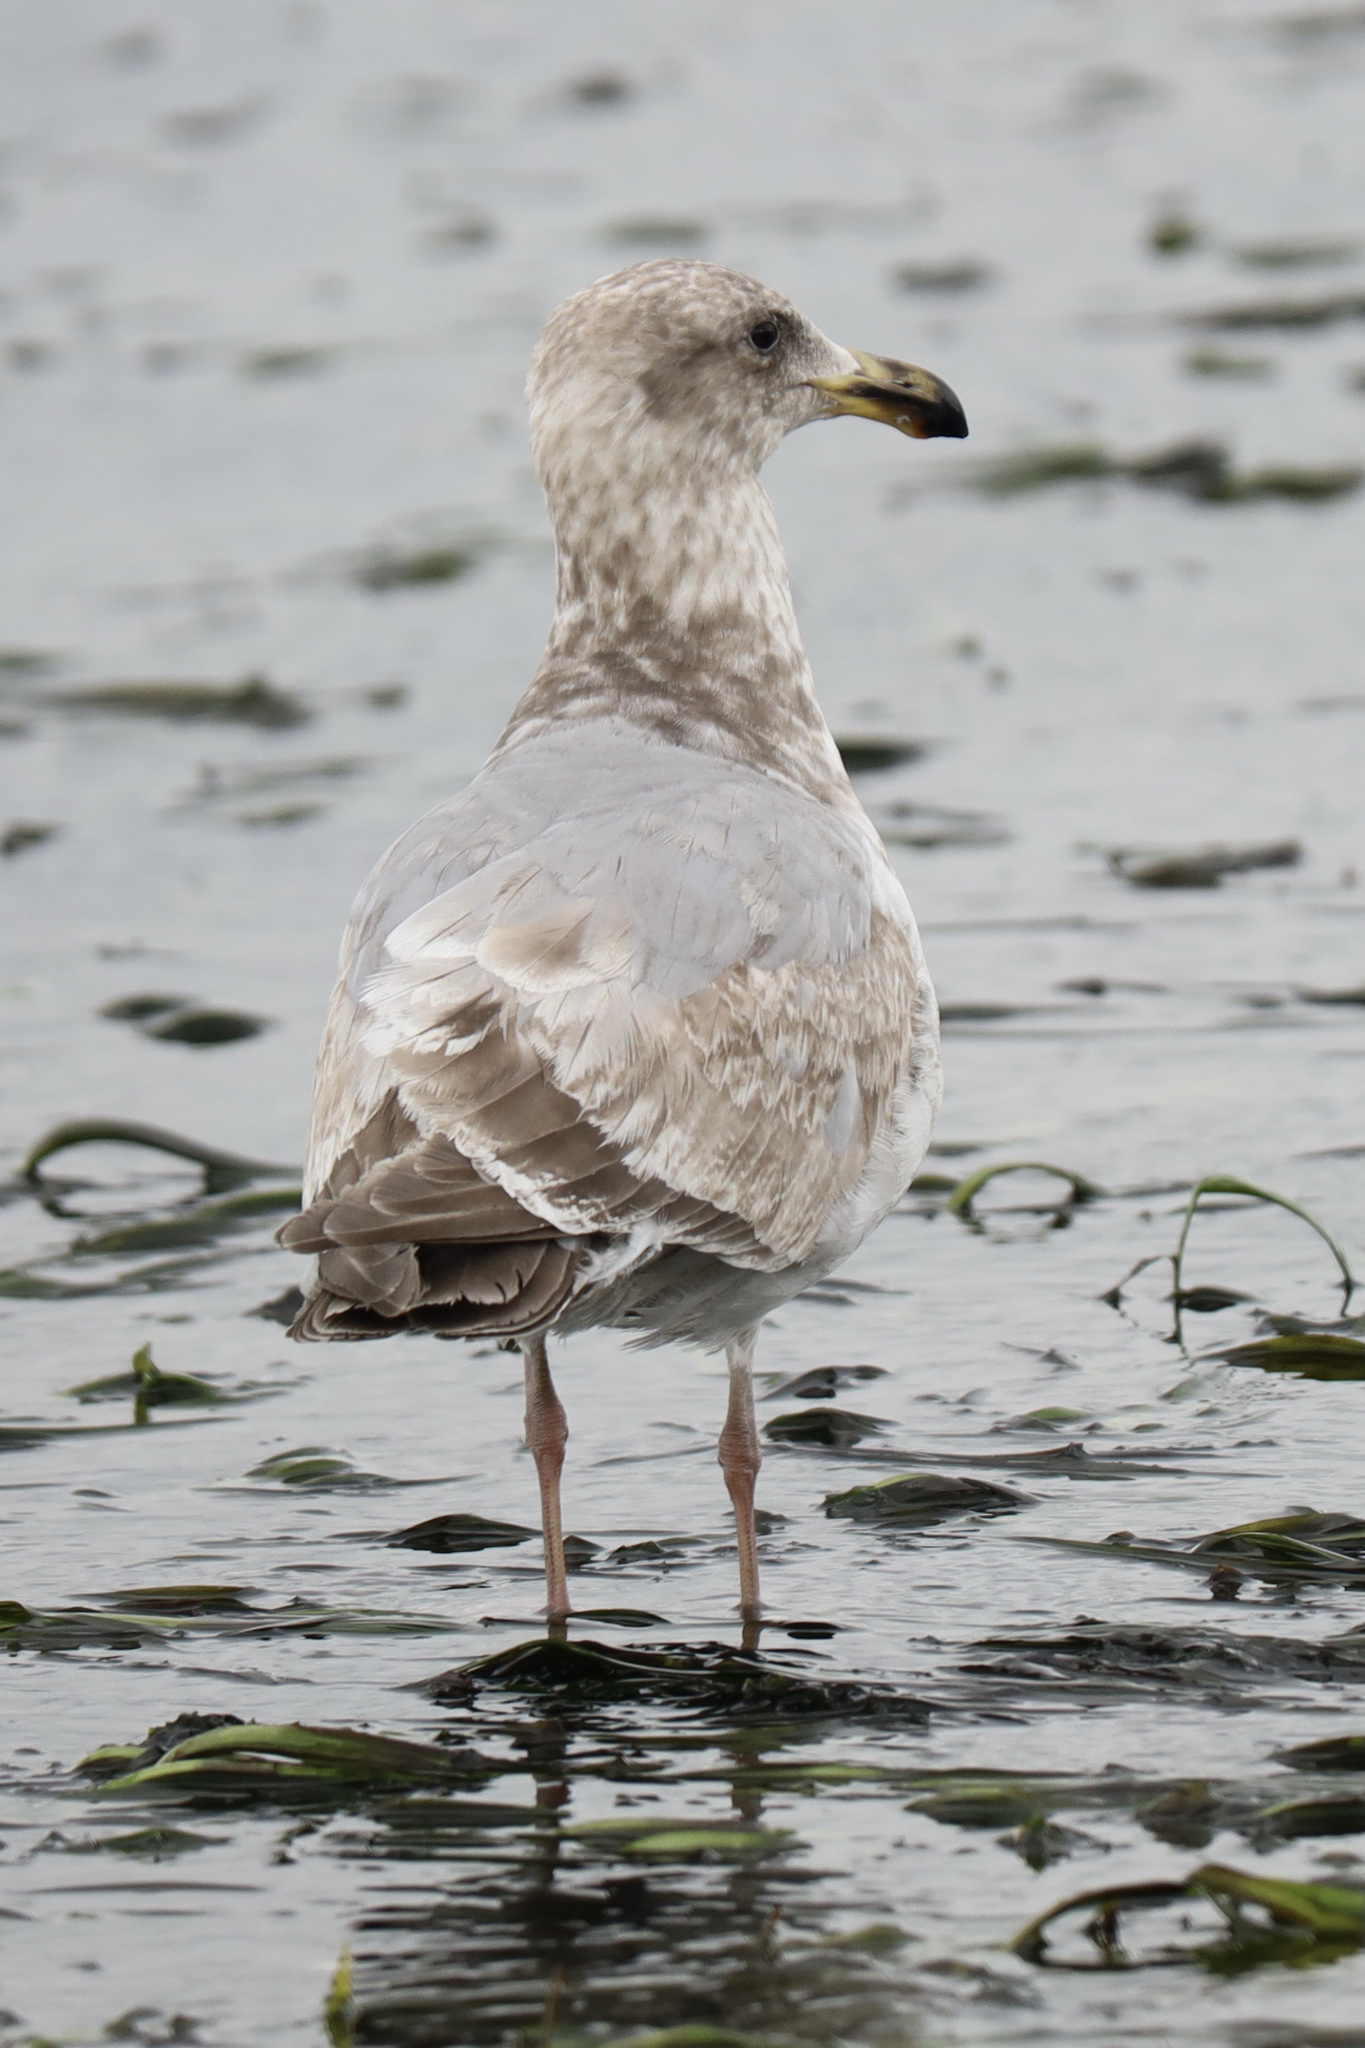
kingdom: Animalia
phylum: Chordata
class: Aves
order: Charadriiformes
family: Laridae
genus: Larus
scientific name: Larus
